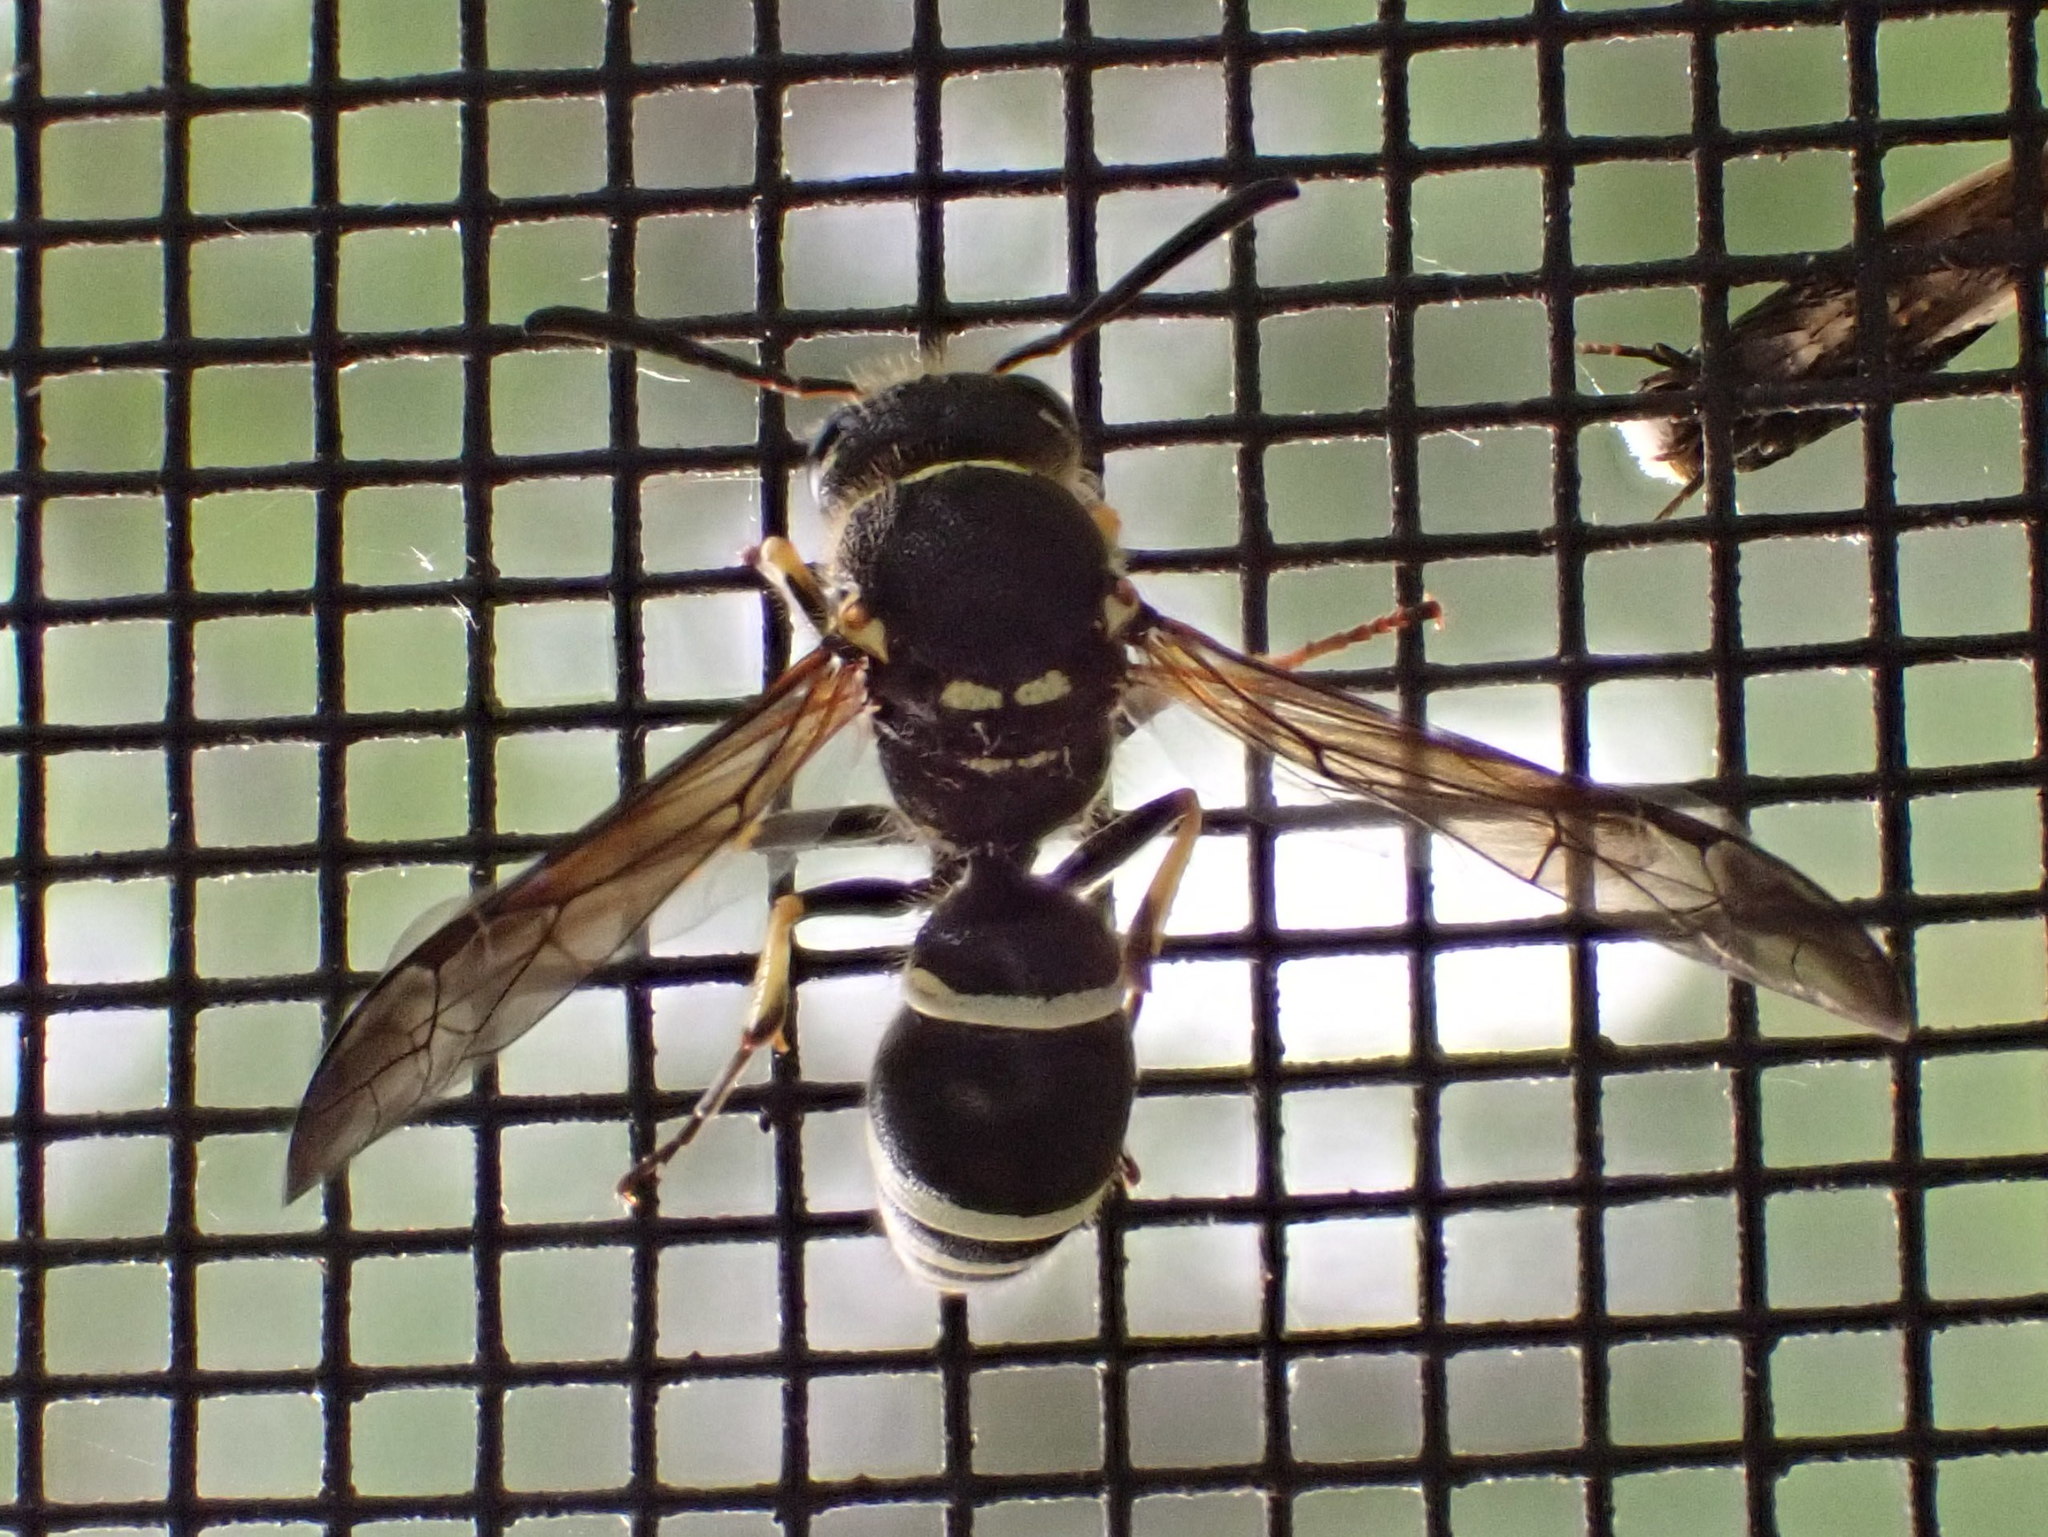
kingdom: Animalia
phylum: Arthropoda
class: Insecta
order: Hymenoptera
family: Vespidae
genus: Ancistrocerus
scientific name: Ancistrocerus
